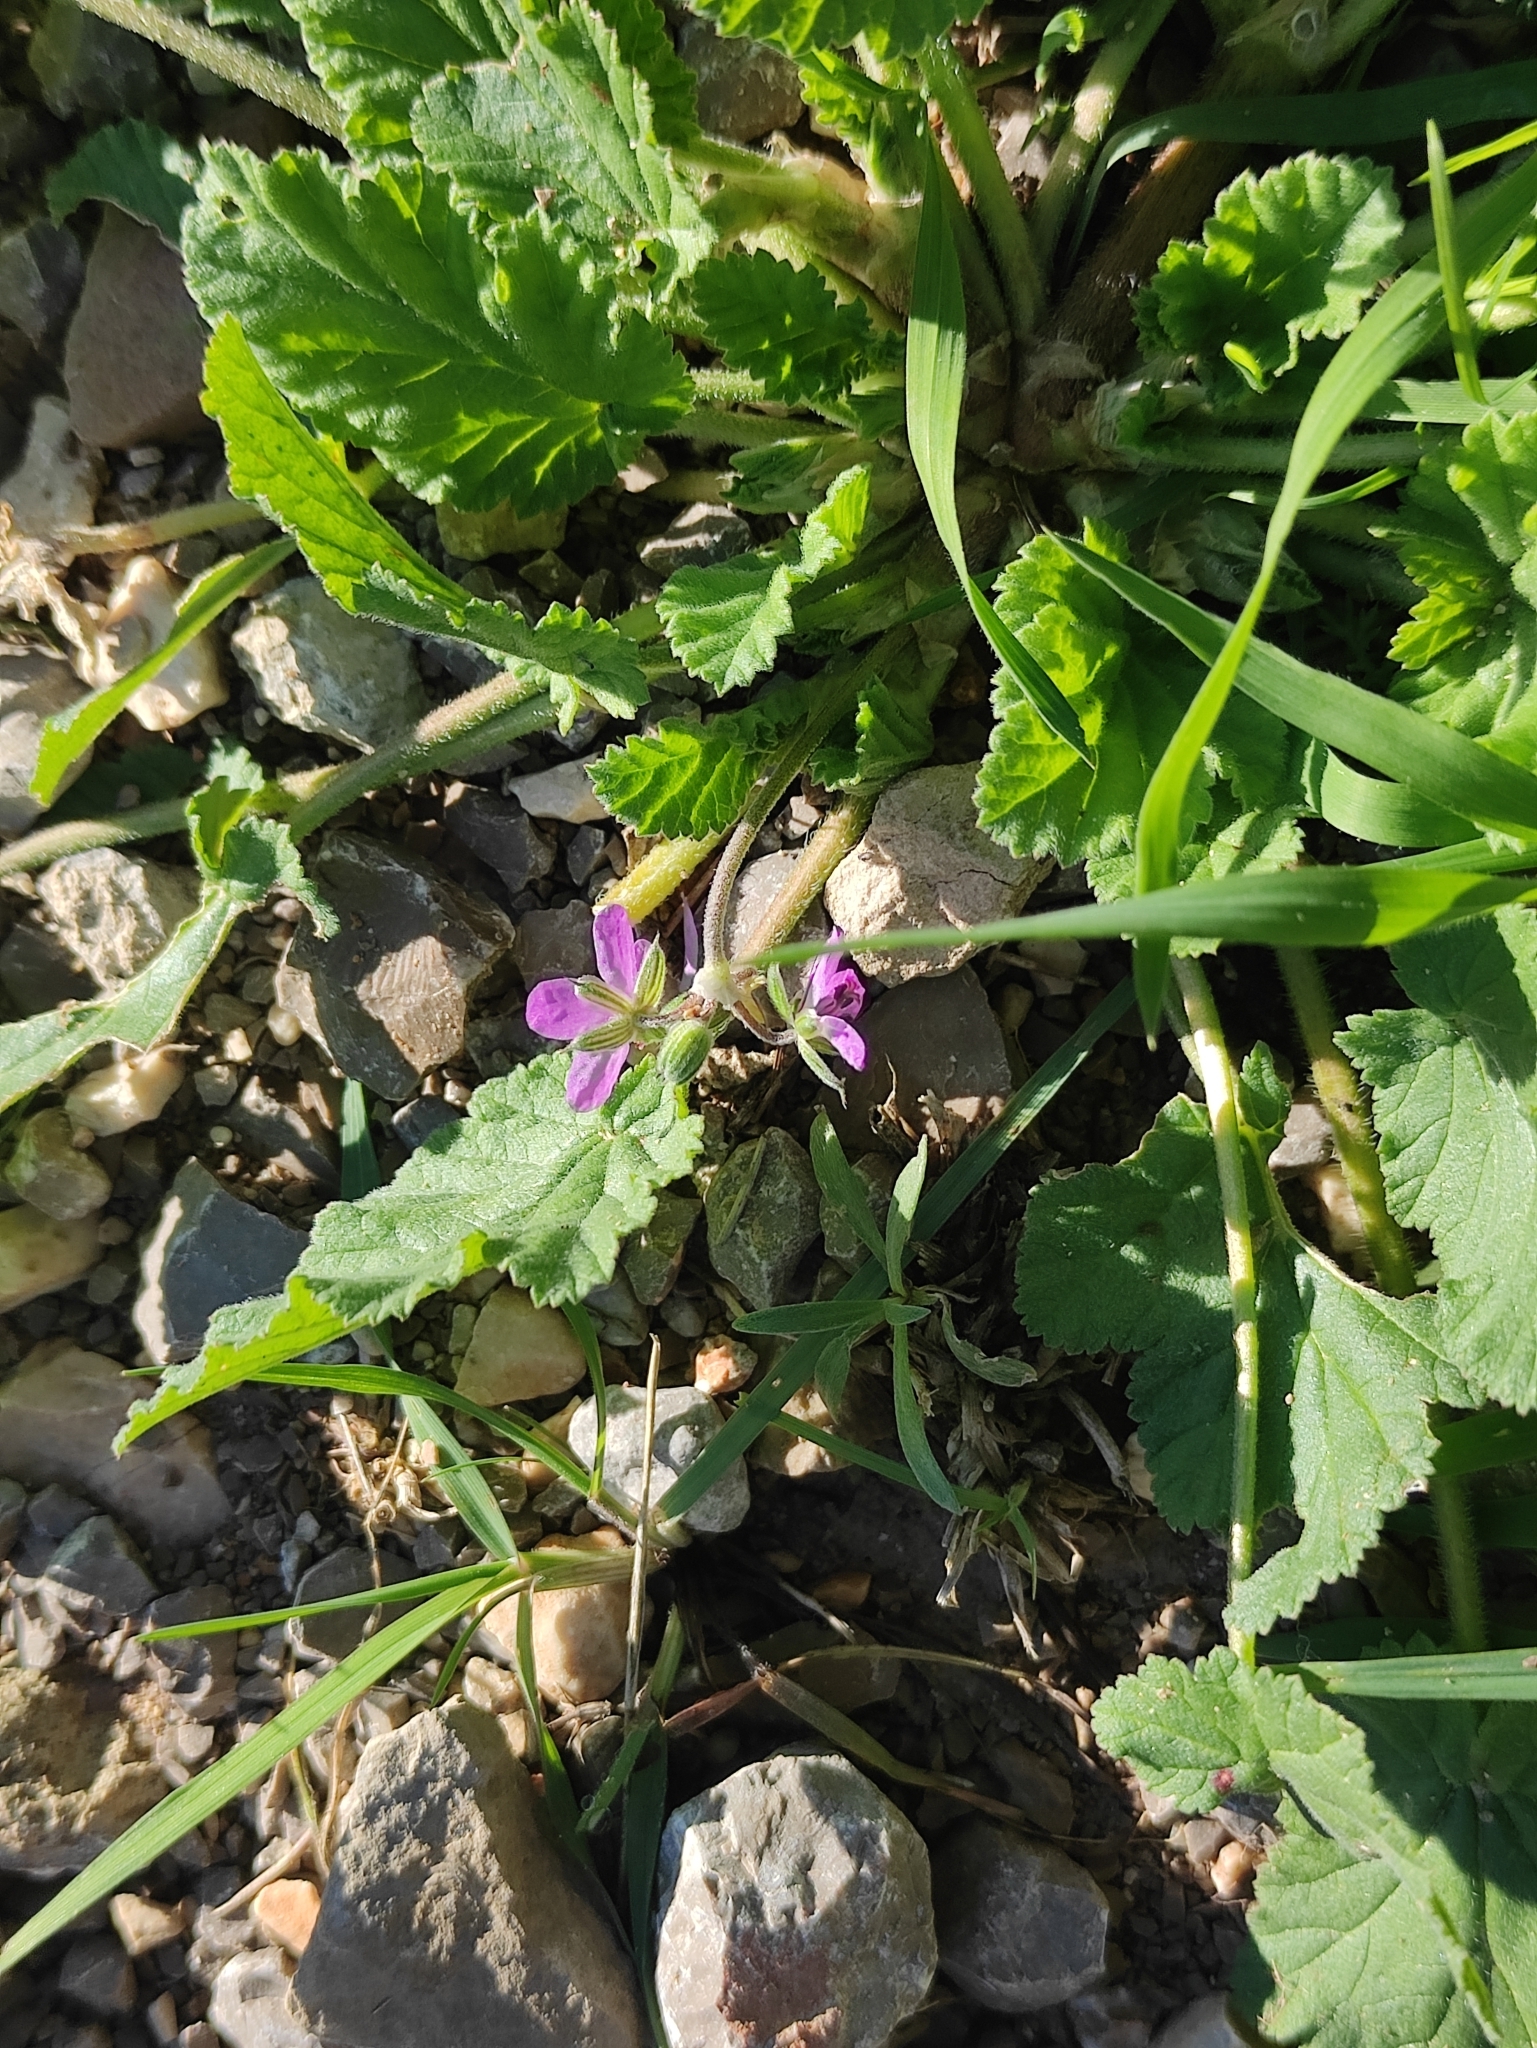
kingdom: Plantae
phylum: Tracheophyta
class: Magnoliopsida
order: Geraniales
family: Geraniaceae
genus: Erodium
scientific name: Erodium malacoides
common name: Soft stork's-bill
